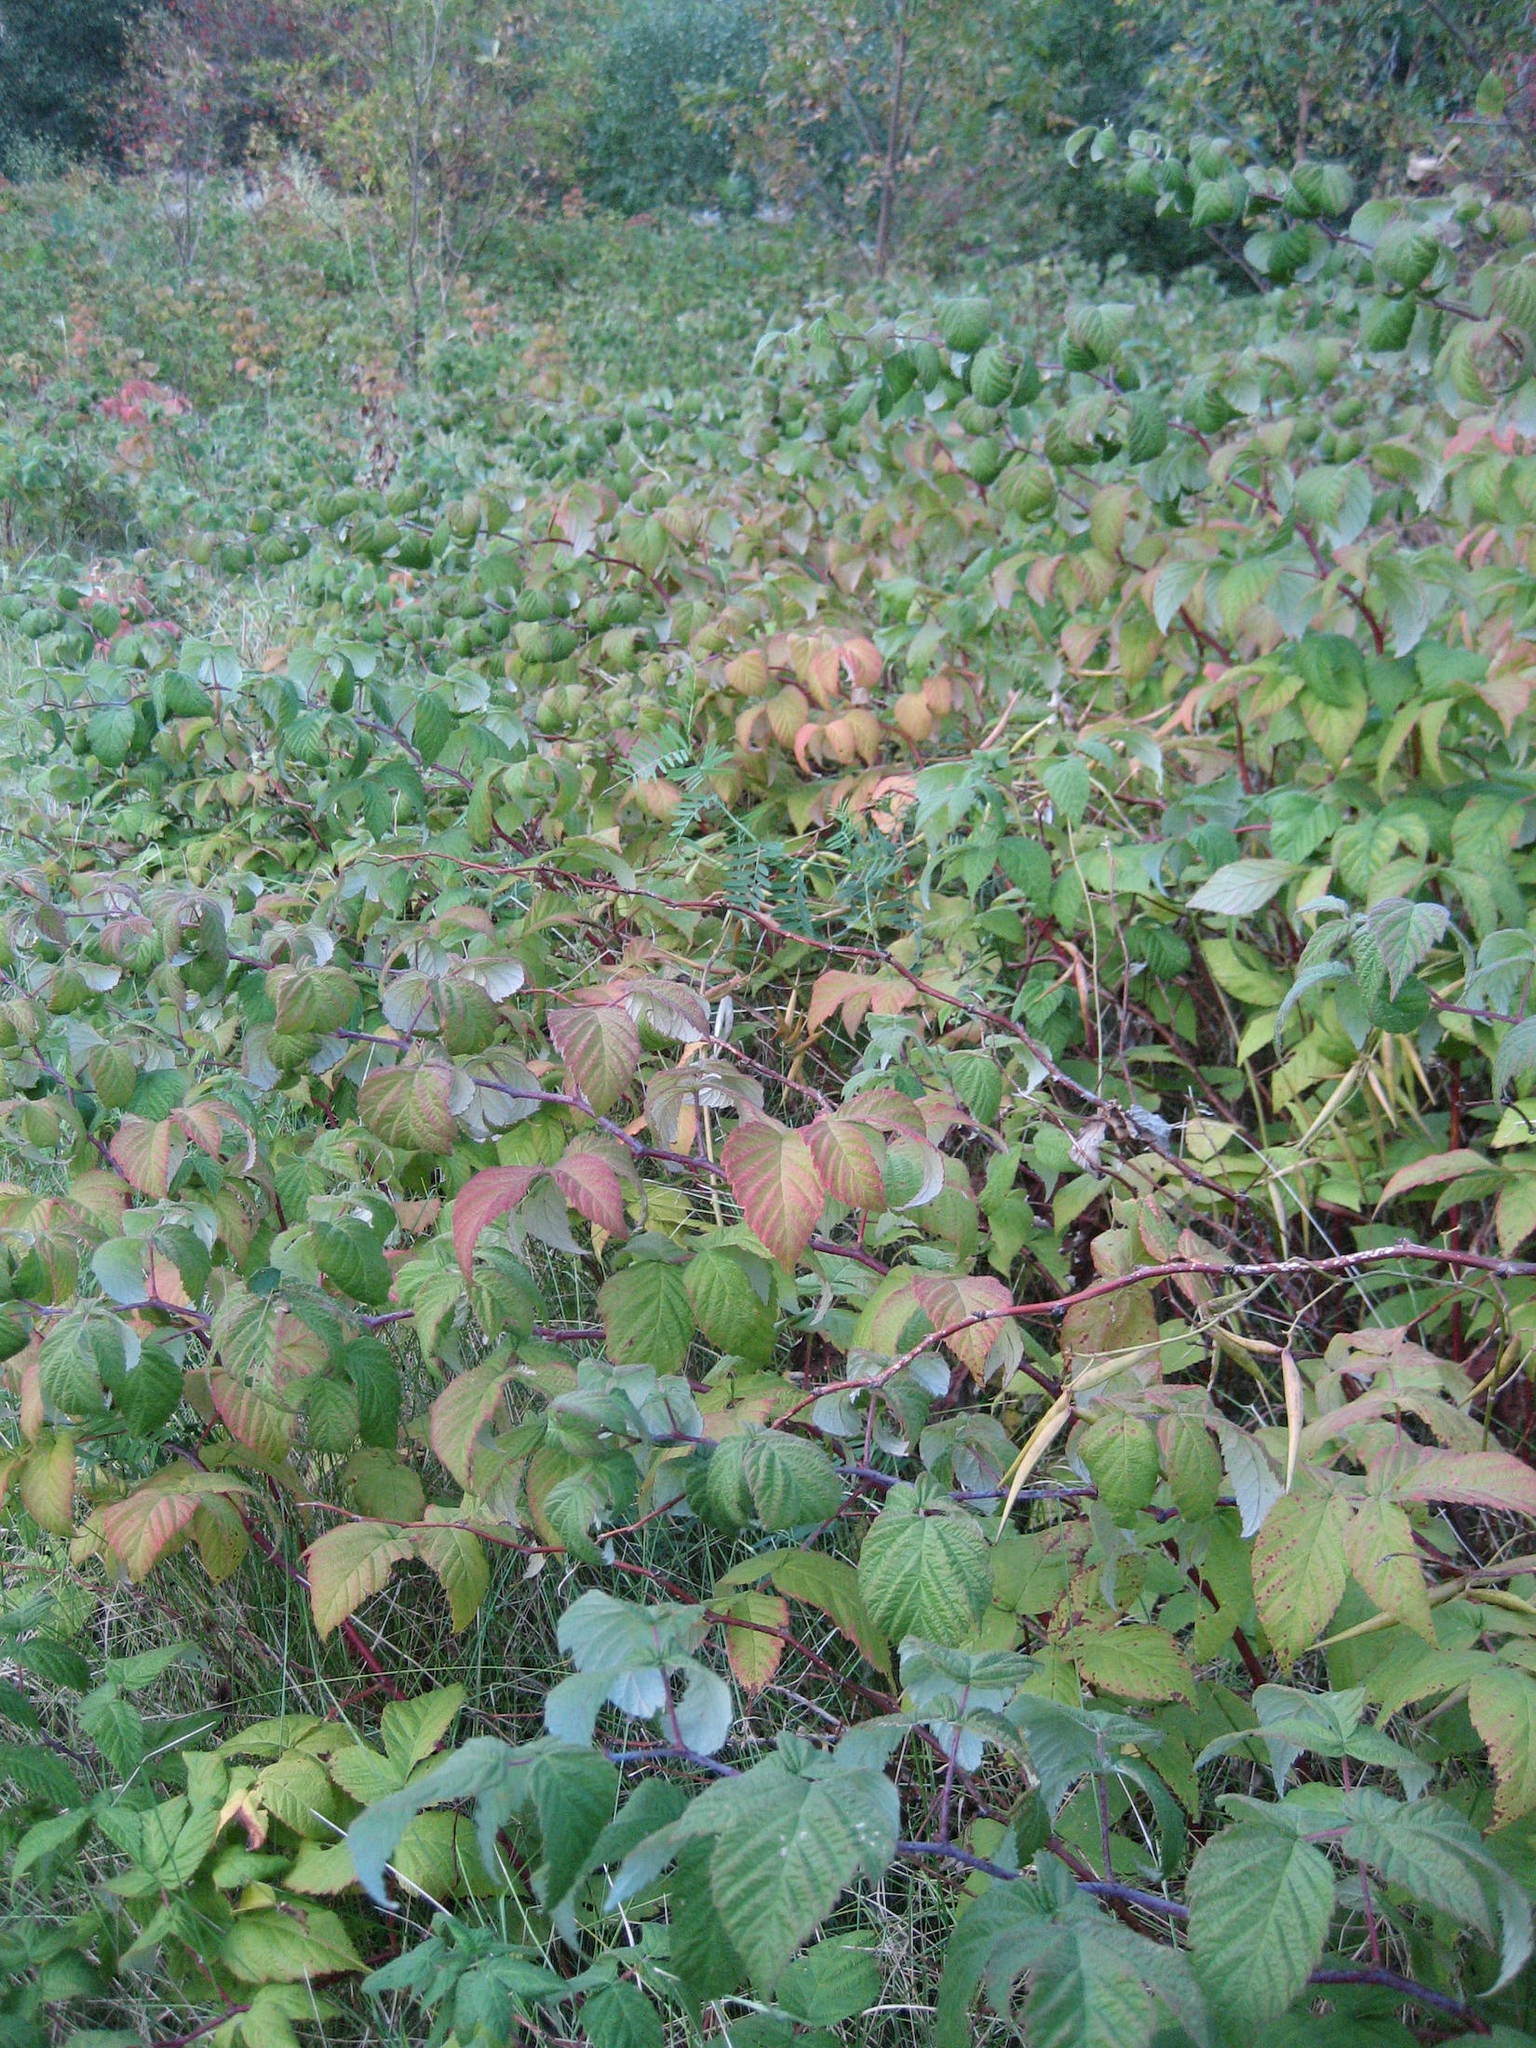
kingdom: Plantae
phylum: Tracheophyta
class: Magnoliopsida
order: Rosales
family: Rosaceae
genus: Rubus
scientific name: Rubus idaeus
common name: Raspberry
